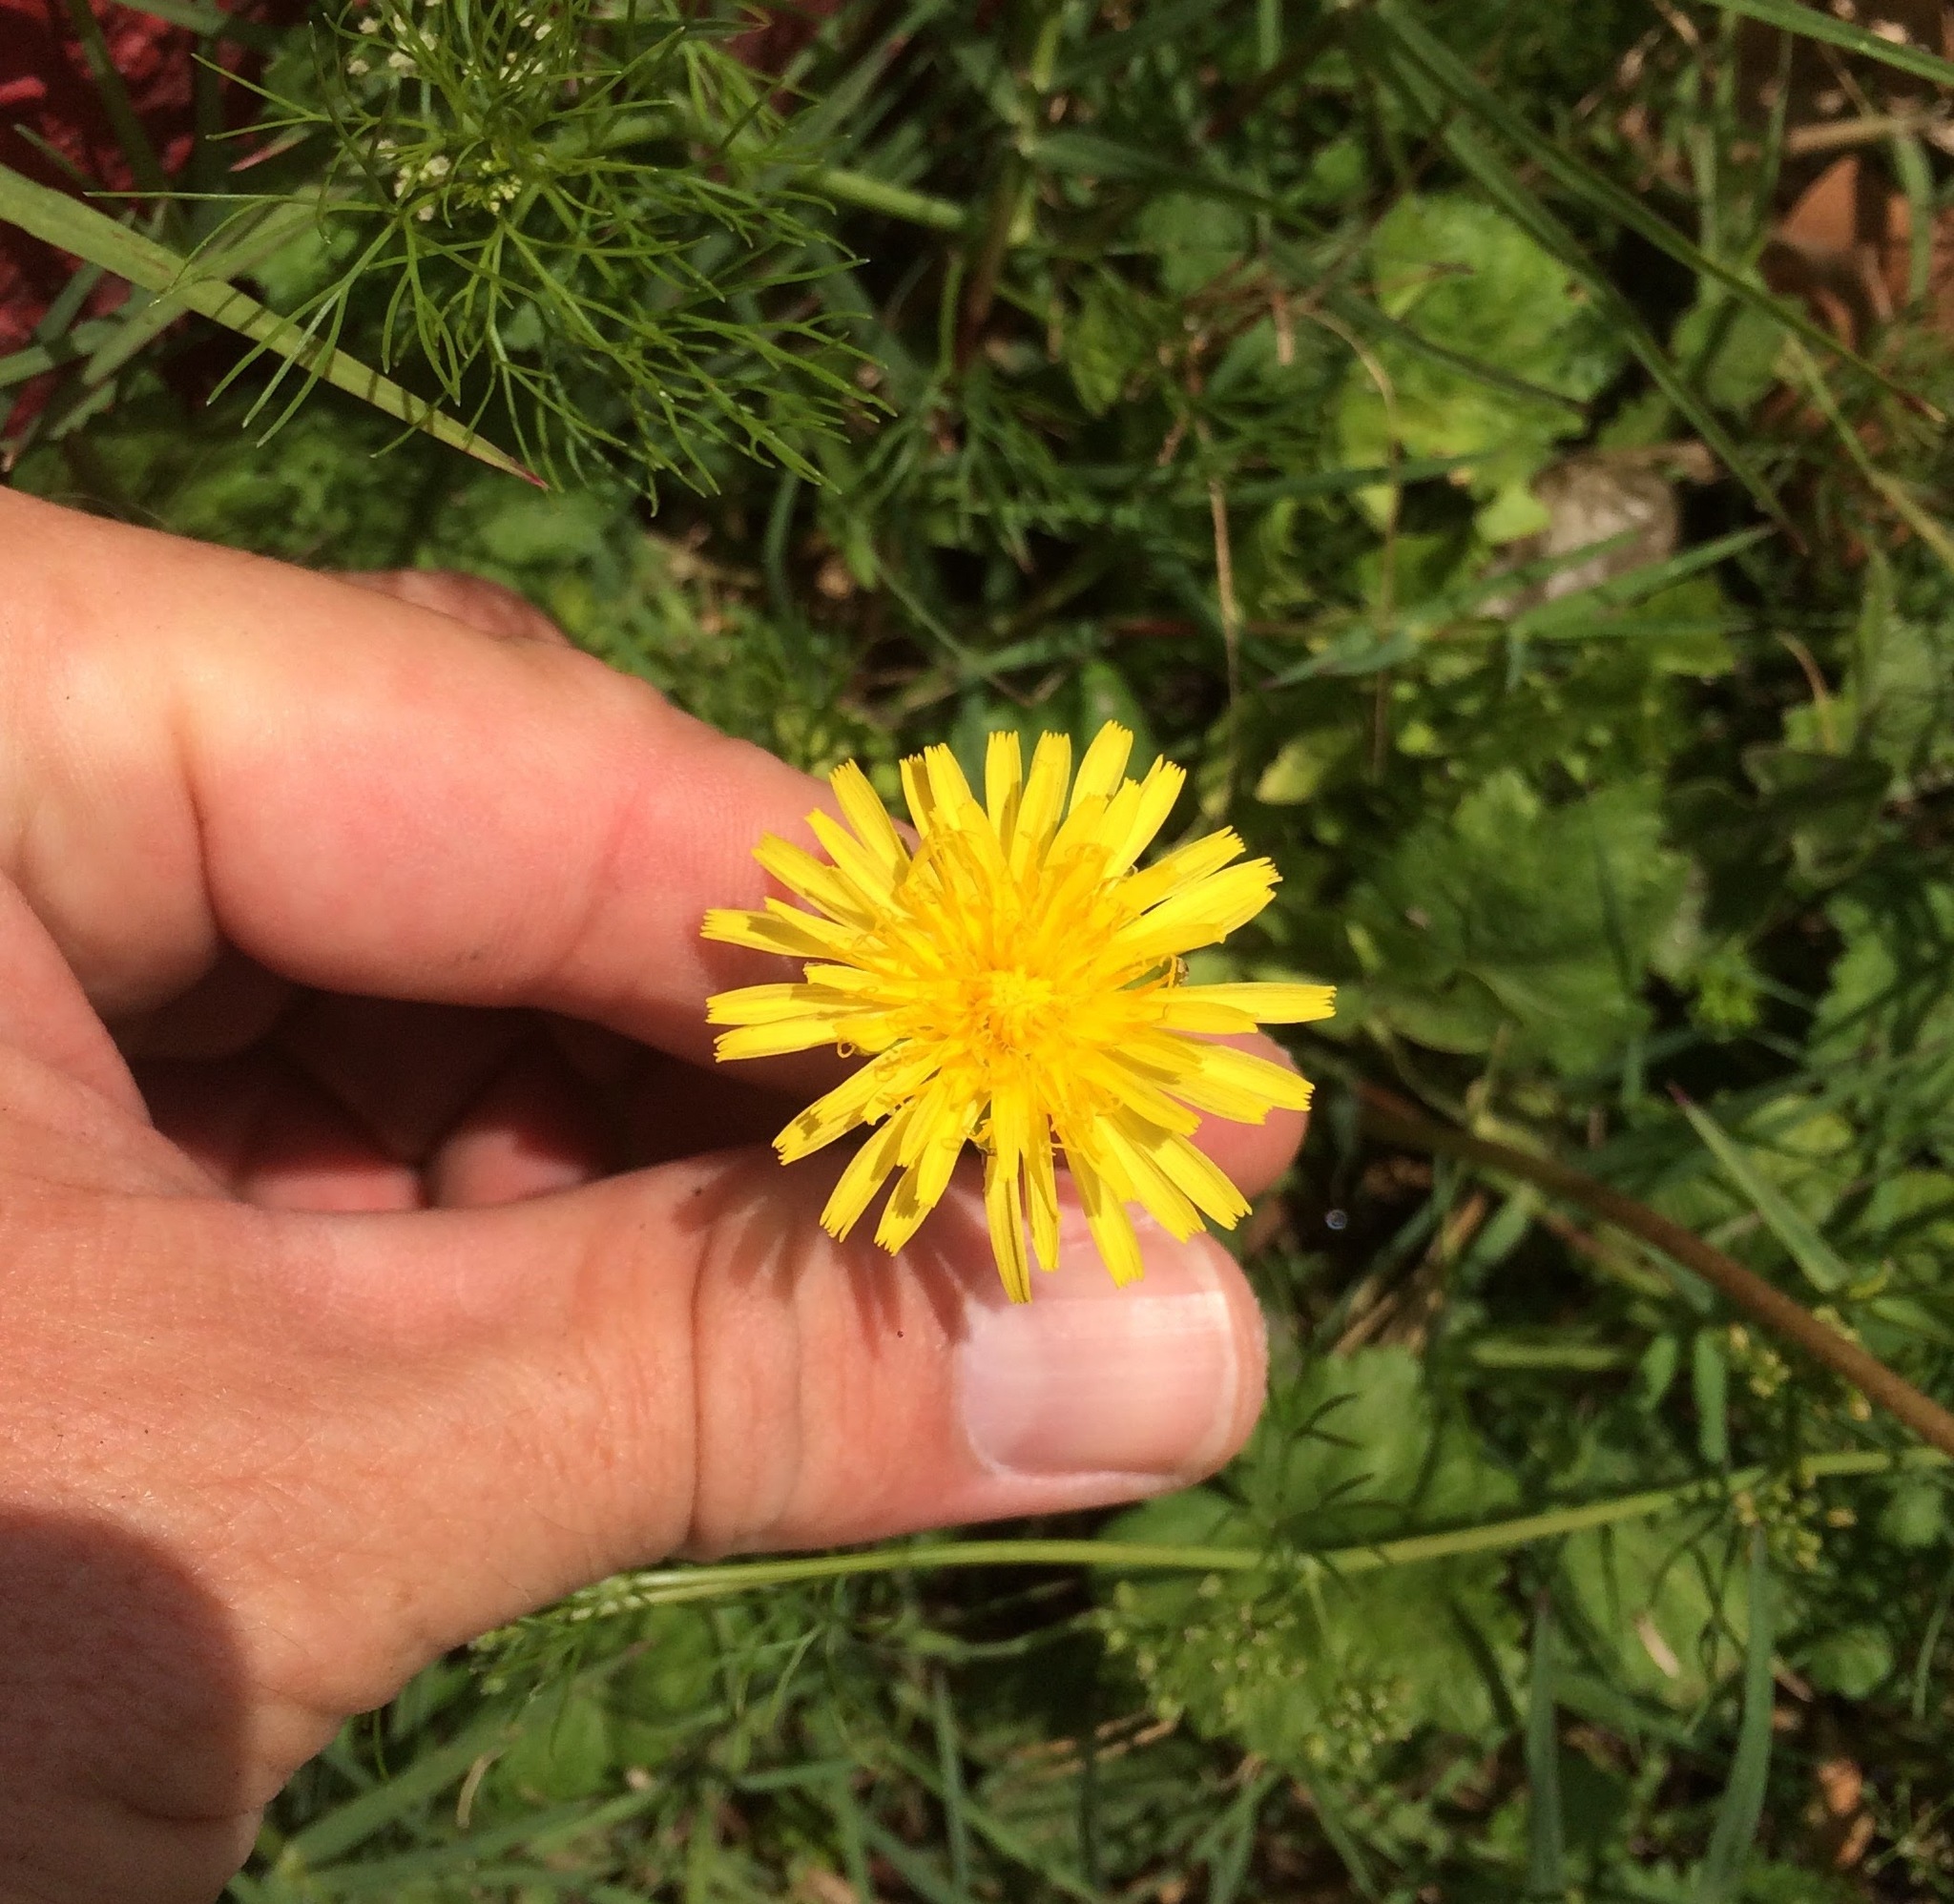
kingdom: Plantae
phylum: Tracheophyta
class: Magnoliopsida
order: Asterales
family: Asteraceae
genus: Taraxacum
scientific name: Taraxacum officinale
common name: Common dandelion
